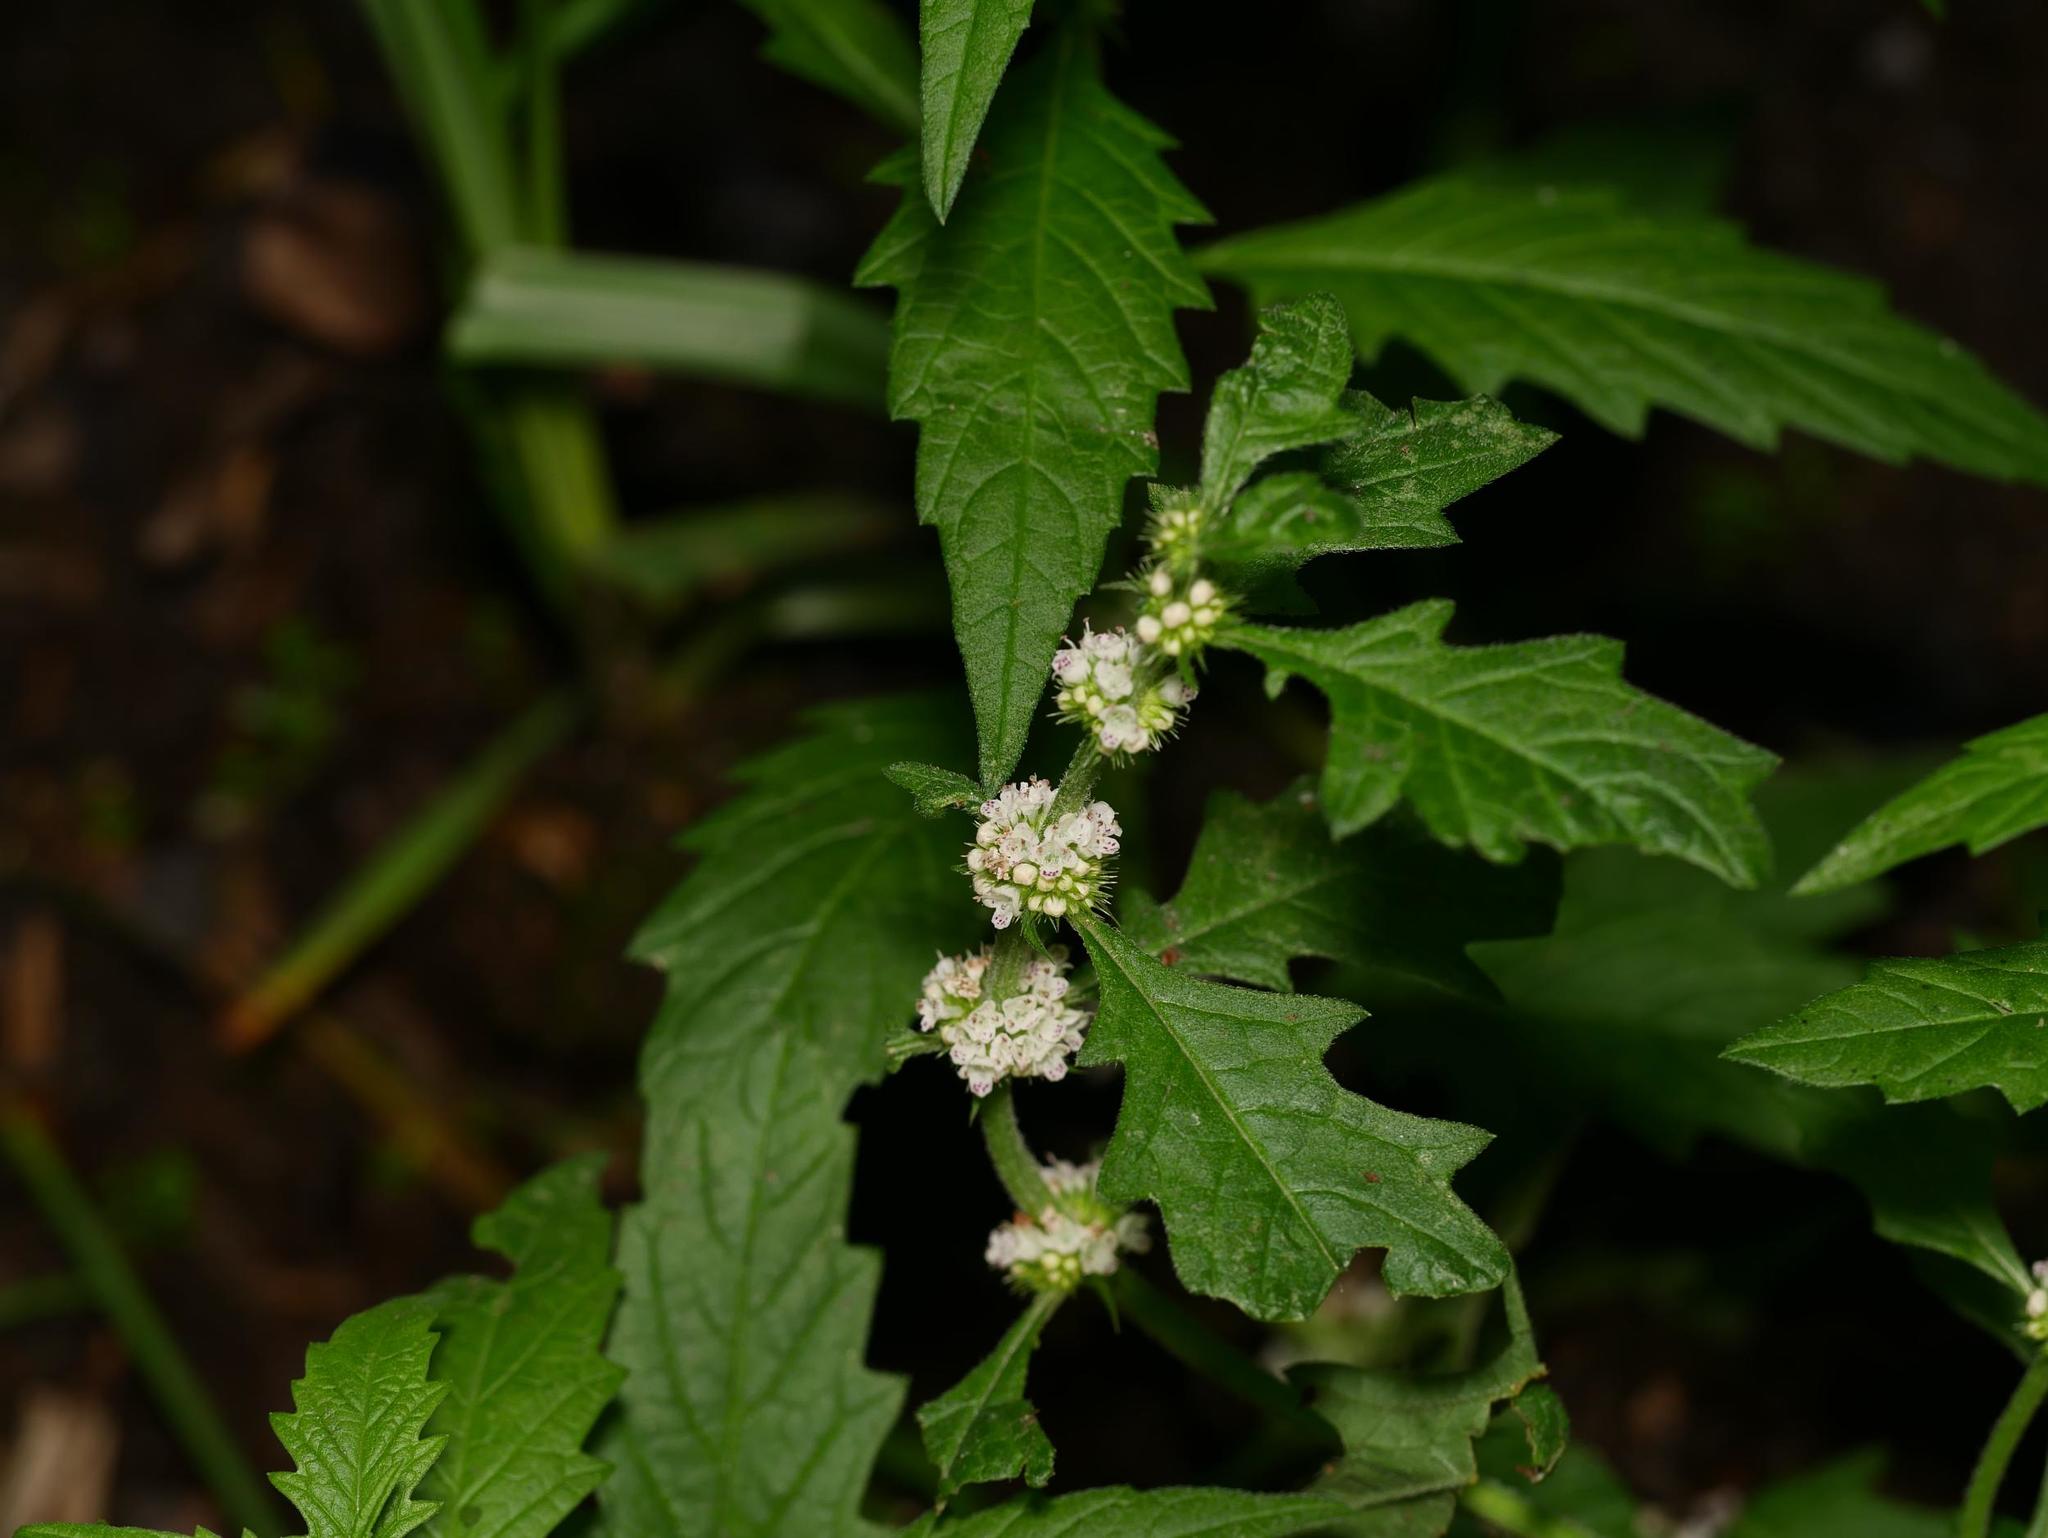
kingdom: Plantae
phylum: Tracheophyta
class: Magnoliopsida
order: Lamiales
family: Lamiaceae
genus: Lycopus
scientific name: Lycopus europaeus
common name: European bugleweed
